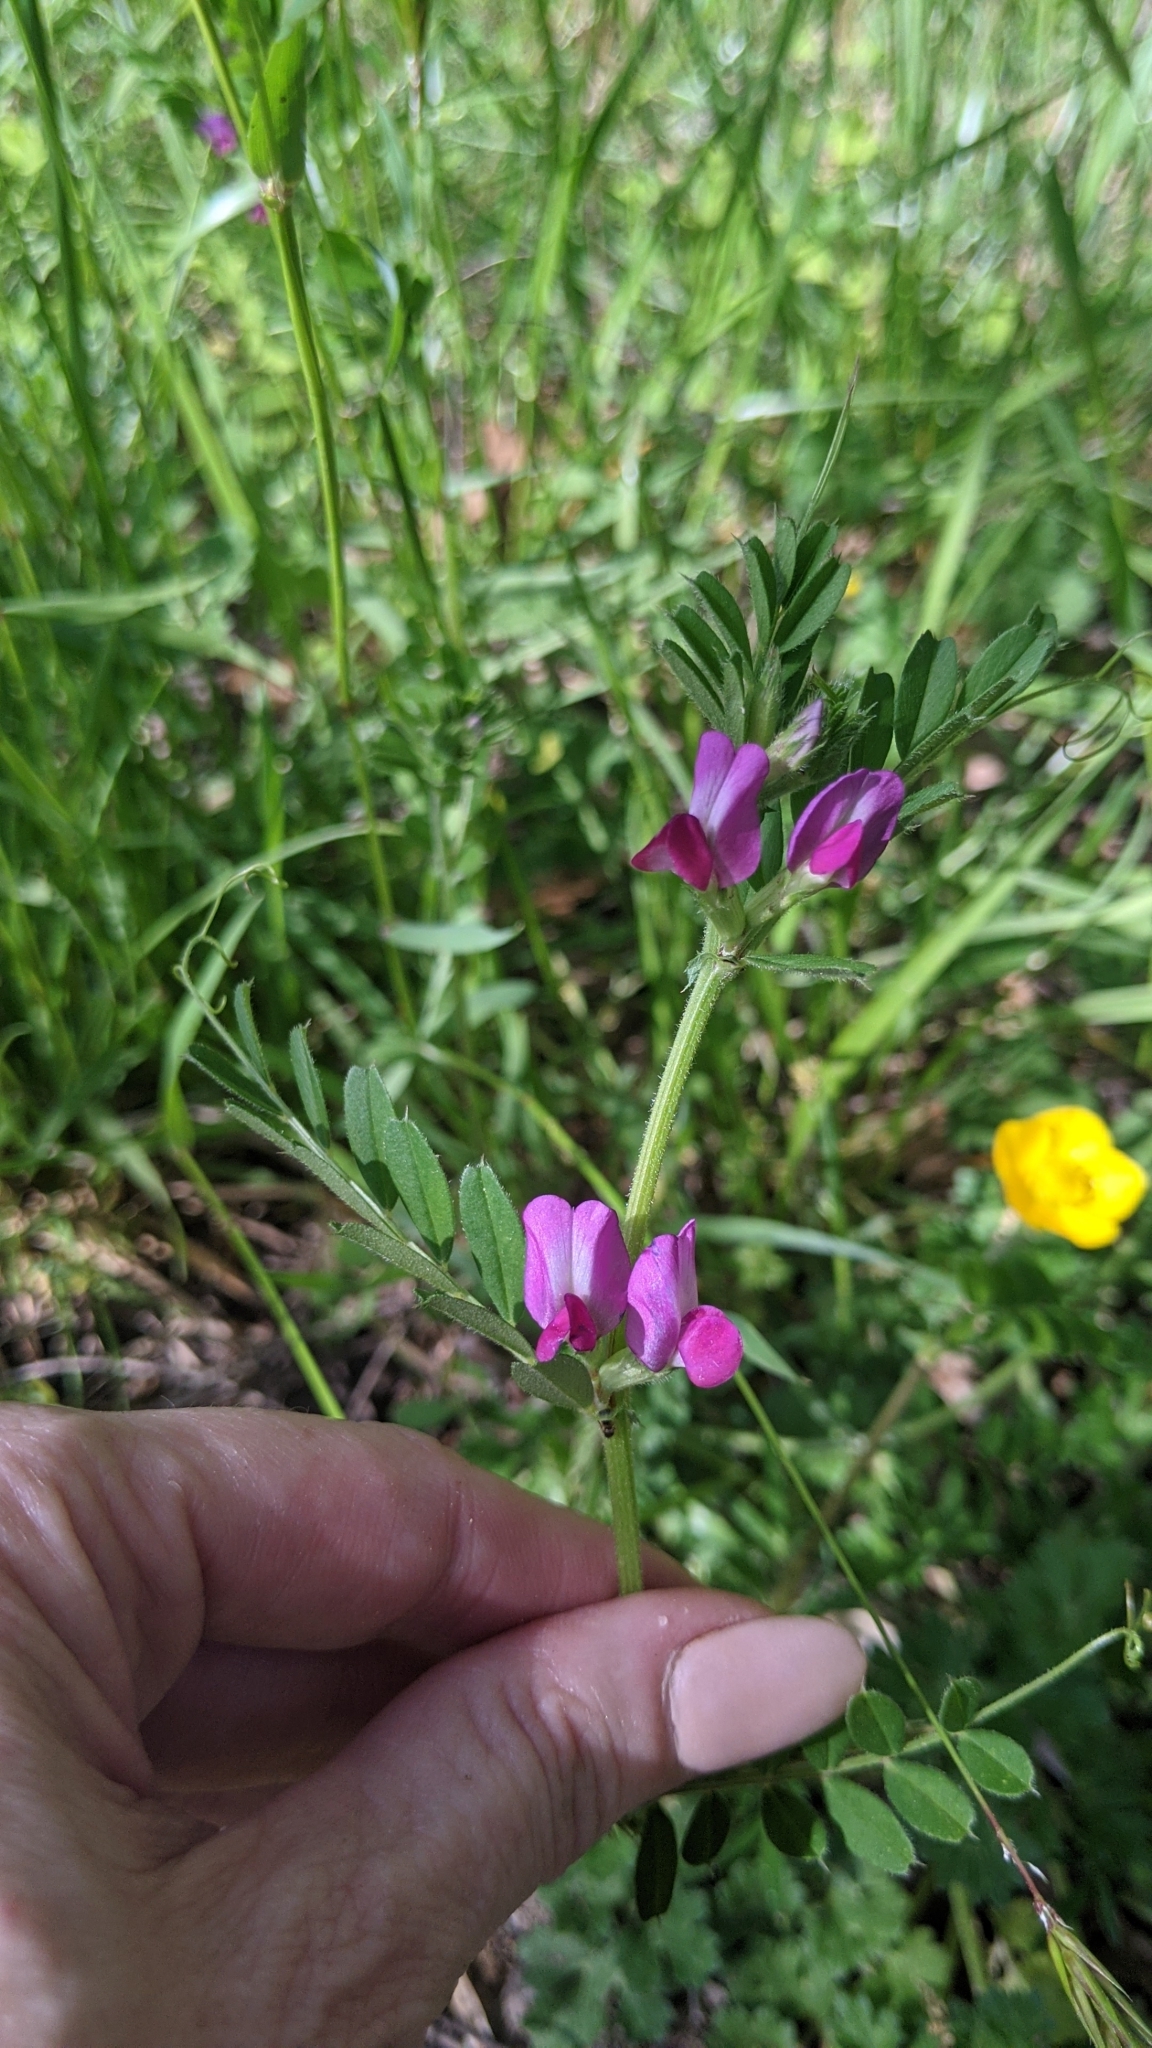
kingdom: Plantae
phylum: Tracheophyta
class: Magnoliopsida
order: Fabales
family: Fabaceae
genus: Vicia
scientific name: Vicia sativa
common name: Garden vetch
